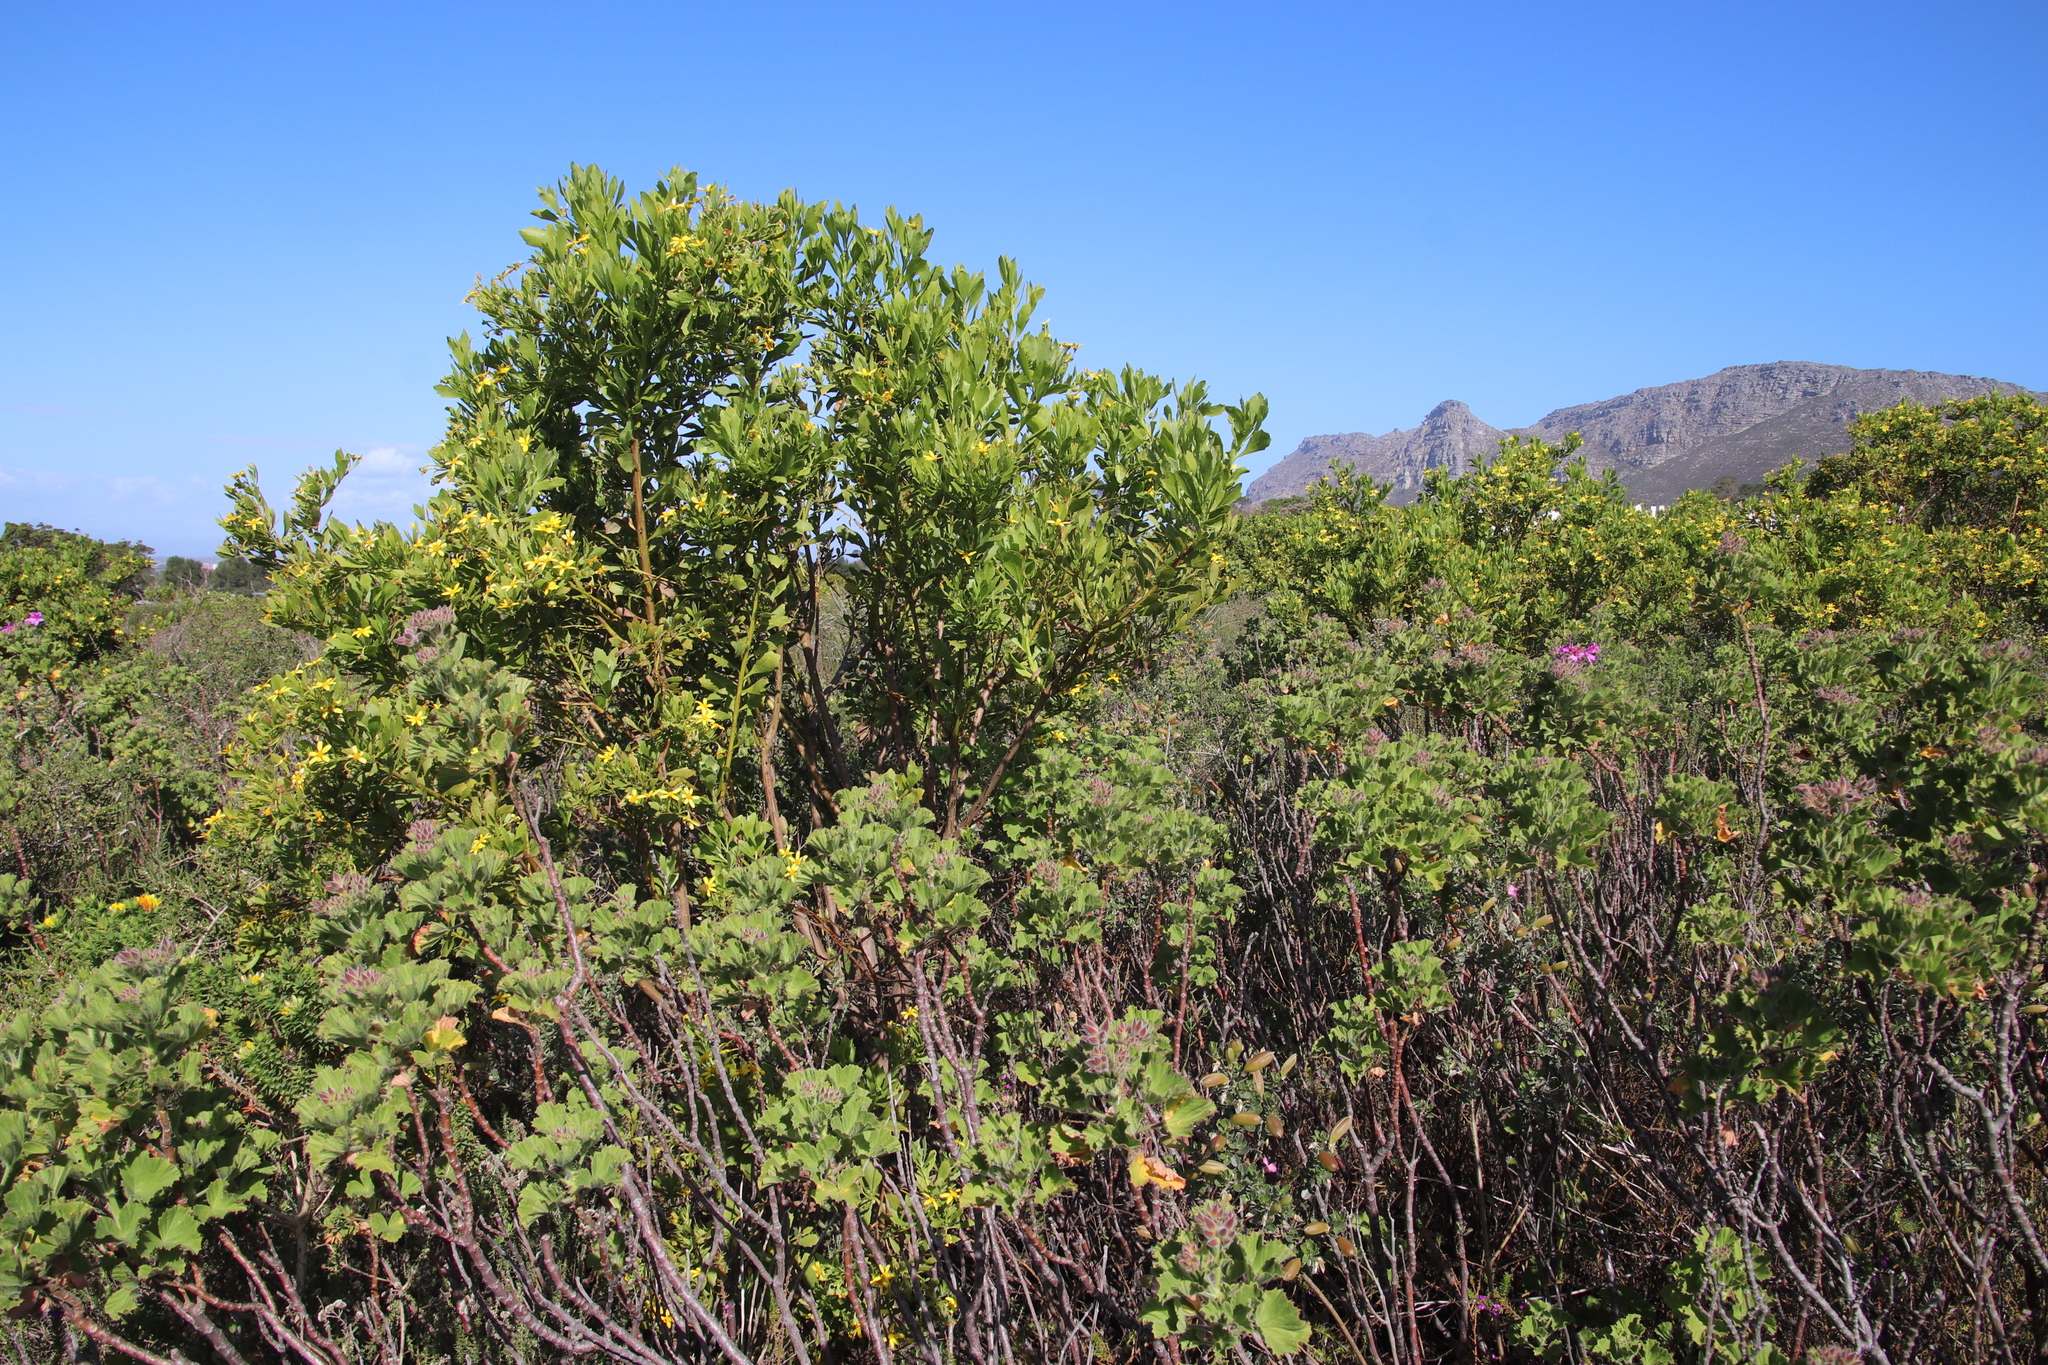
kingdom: Plantae
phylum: Tracheophyta
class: Magnoliopsida
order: Geraniales
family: Geraniaceae
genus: Pelargonium
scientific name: Pelargonium cucullatum
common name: Tree pelargonium
